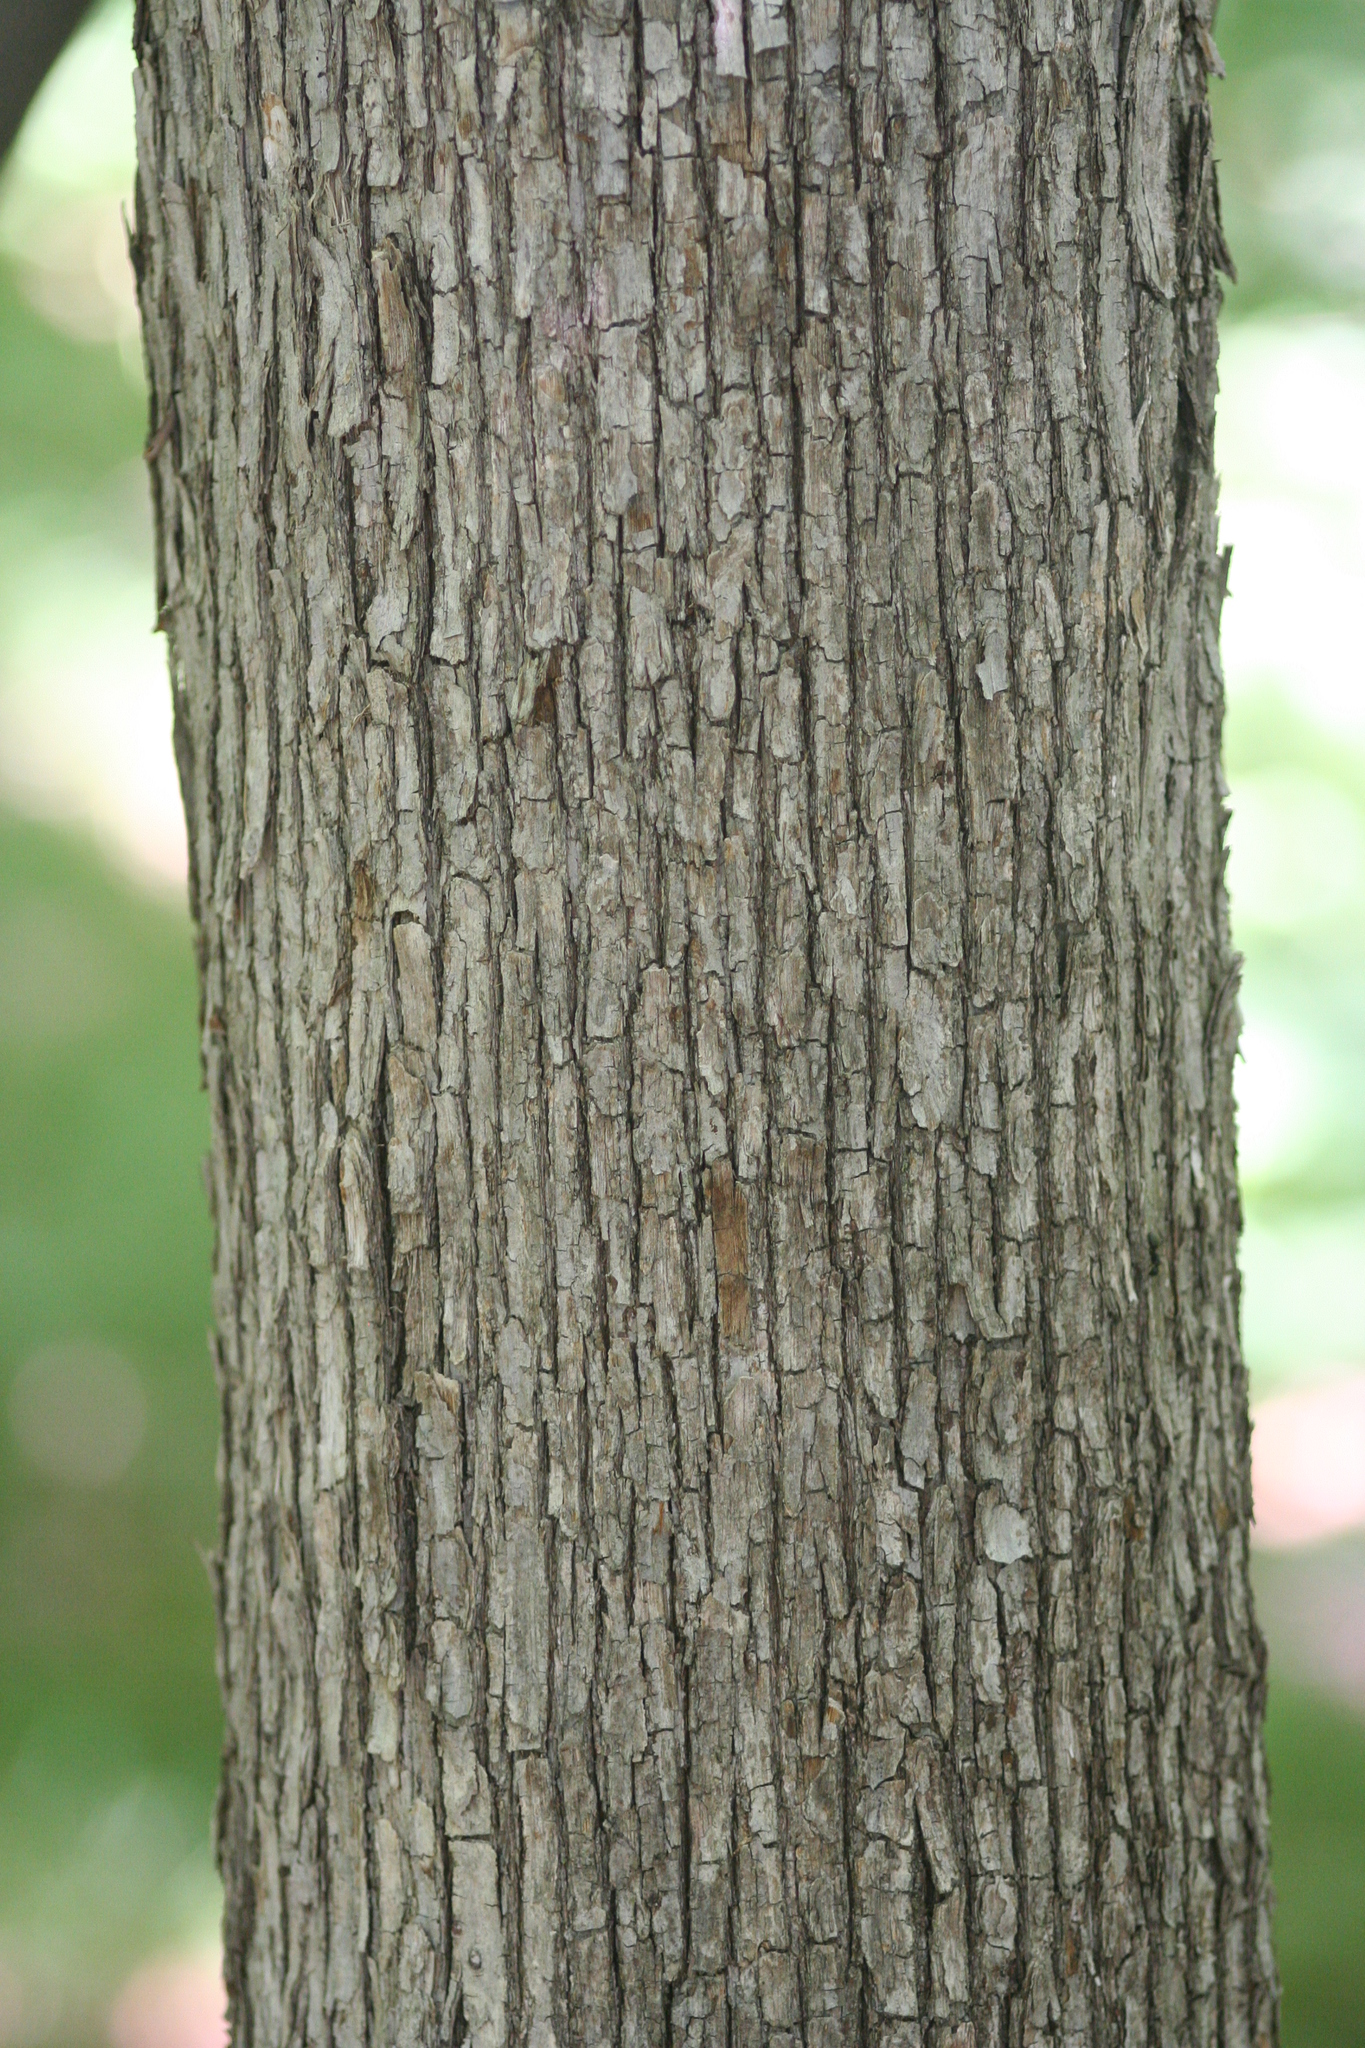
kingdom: Plantae
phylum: Tracheophyta
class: Magnoliopsida
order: Fagales
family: Betulaceae
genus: Ostrya
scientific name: Ostrya virginiana
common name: Ironwood
